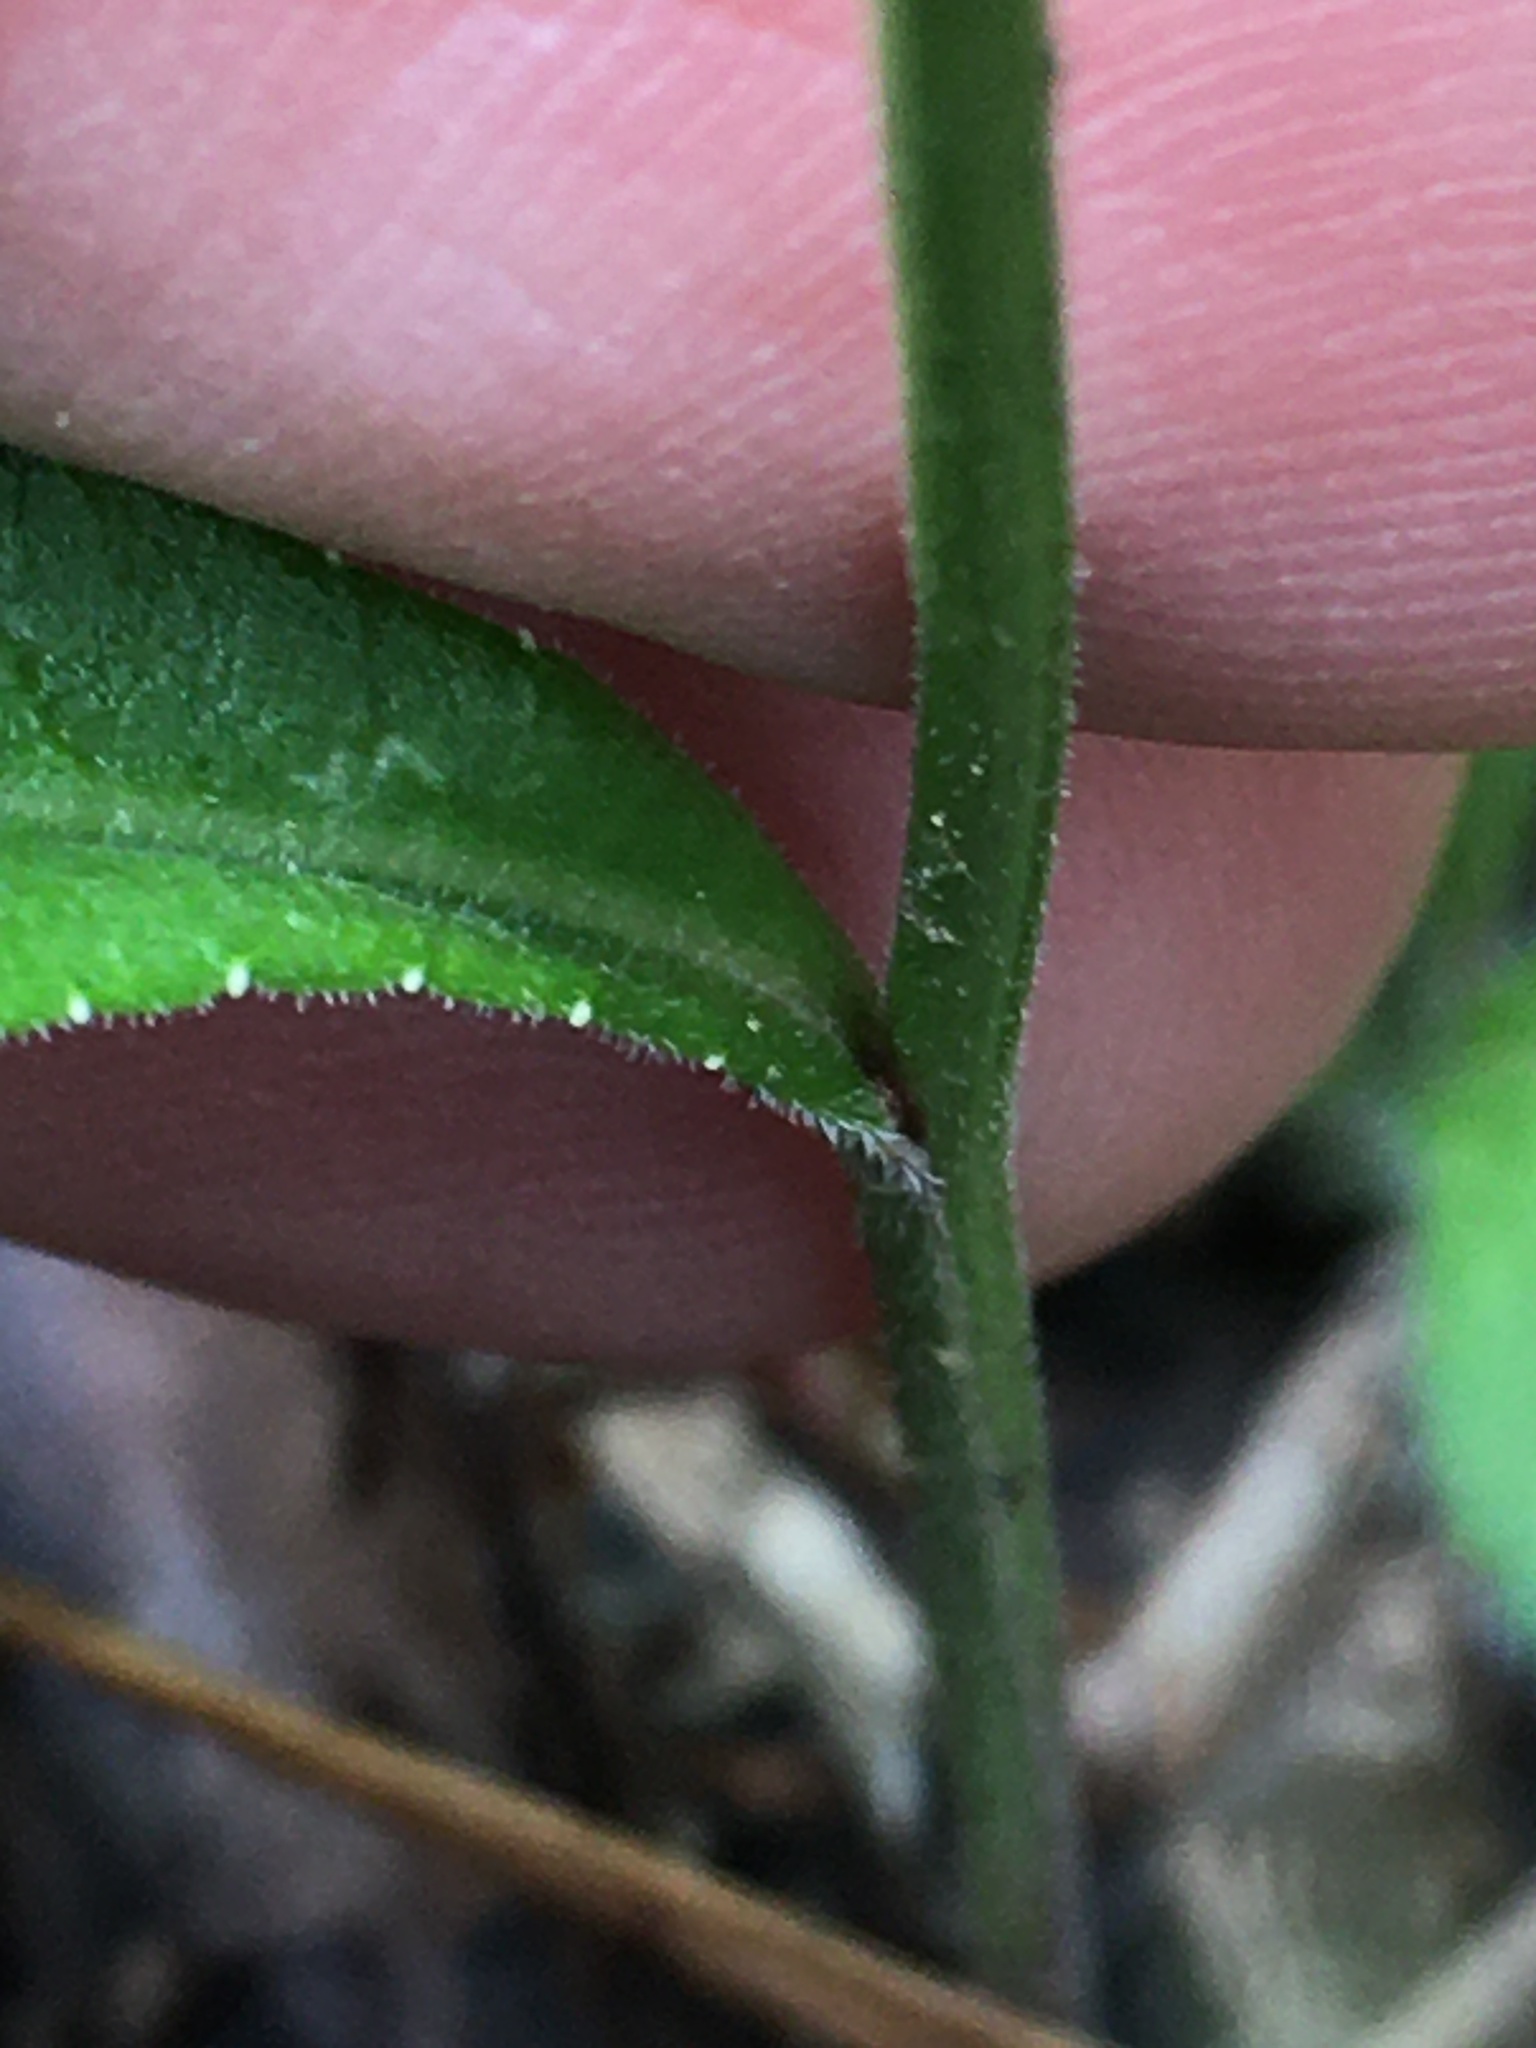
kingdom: Plantae
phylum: Tracheophyta
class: Magnoliopsida
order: Asterales
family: Campanulaceae
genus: Lobelia
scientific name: Lobelia spicata
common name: Pale-spike lobelia
